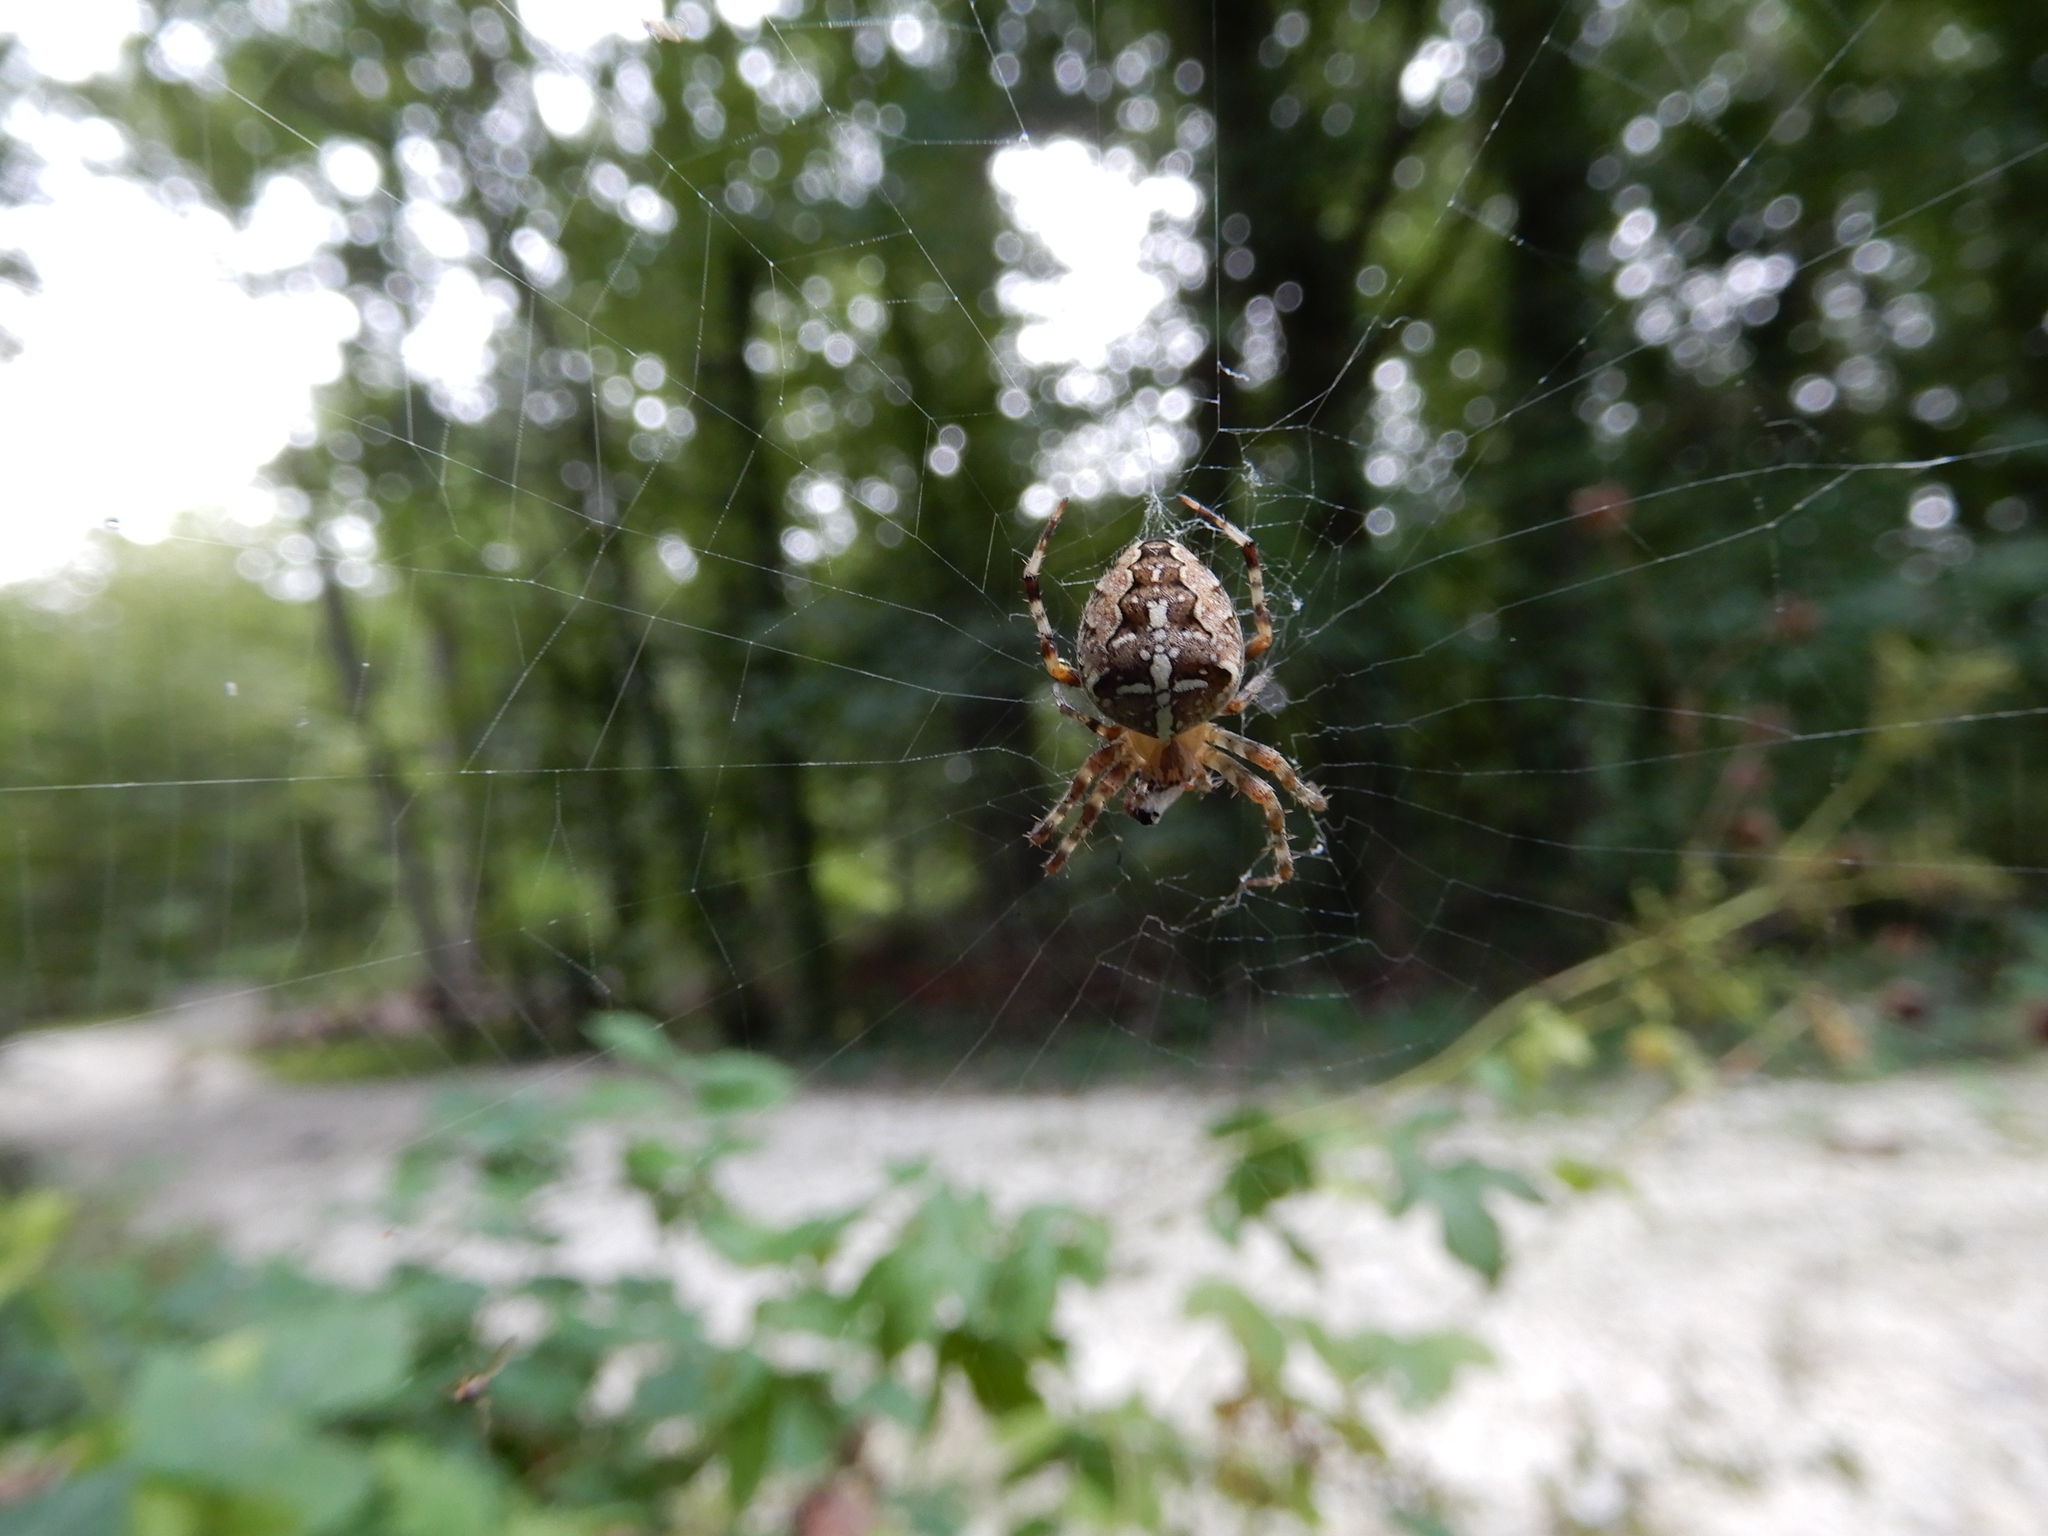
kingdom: Animalia
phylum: Arthropoda
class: Arachnida
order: Araneae
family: Araneidae
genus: Araneus
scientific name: Araneus diadematus
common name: Cross orbweaver
